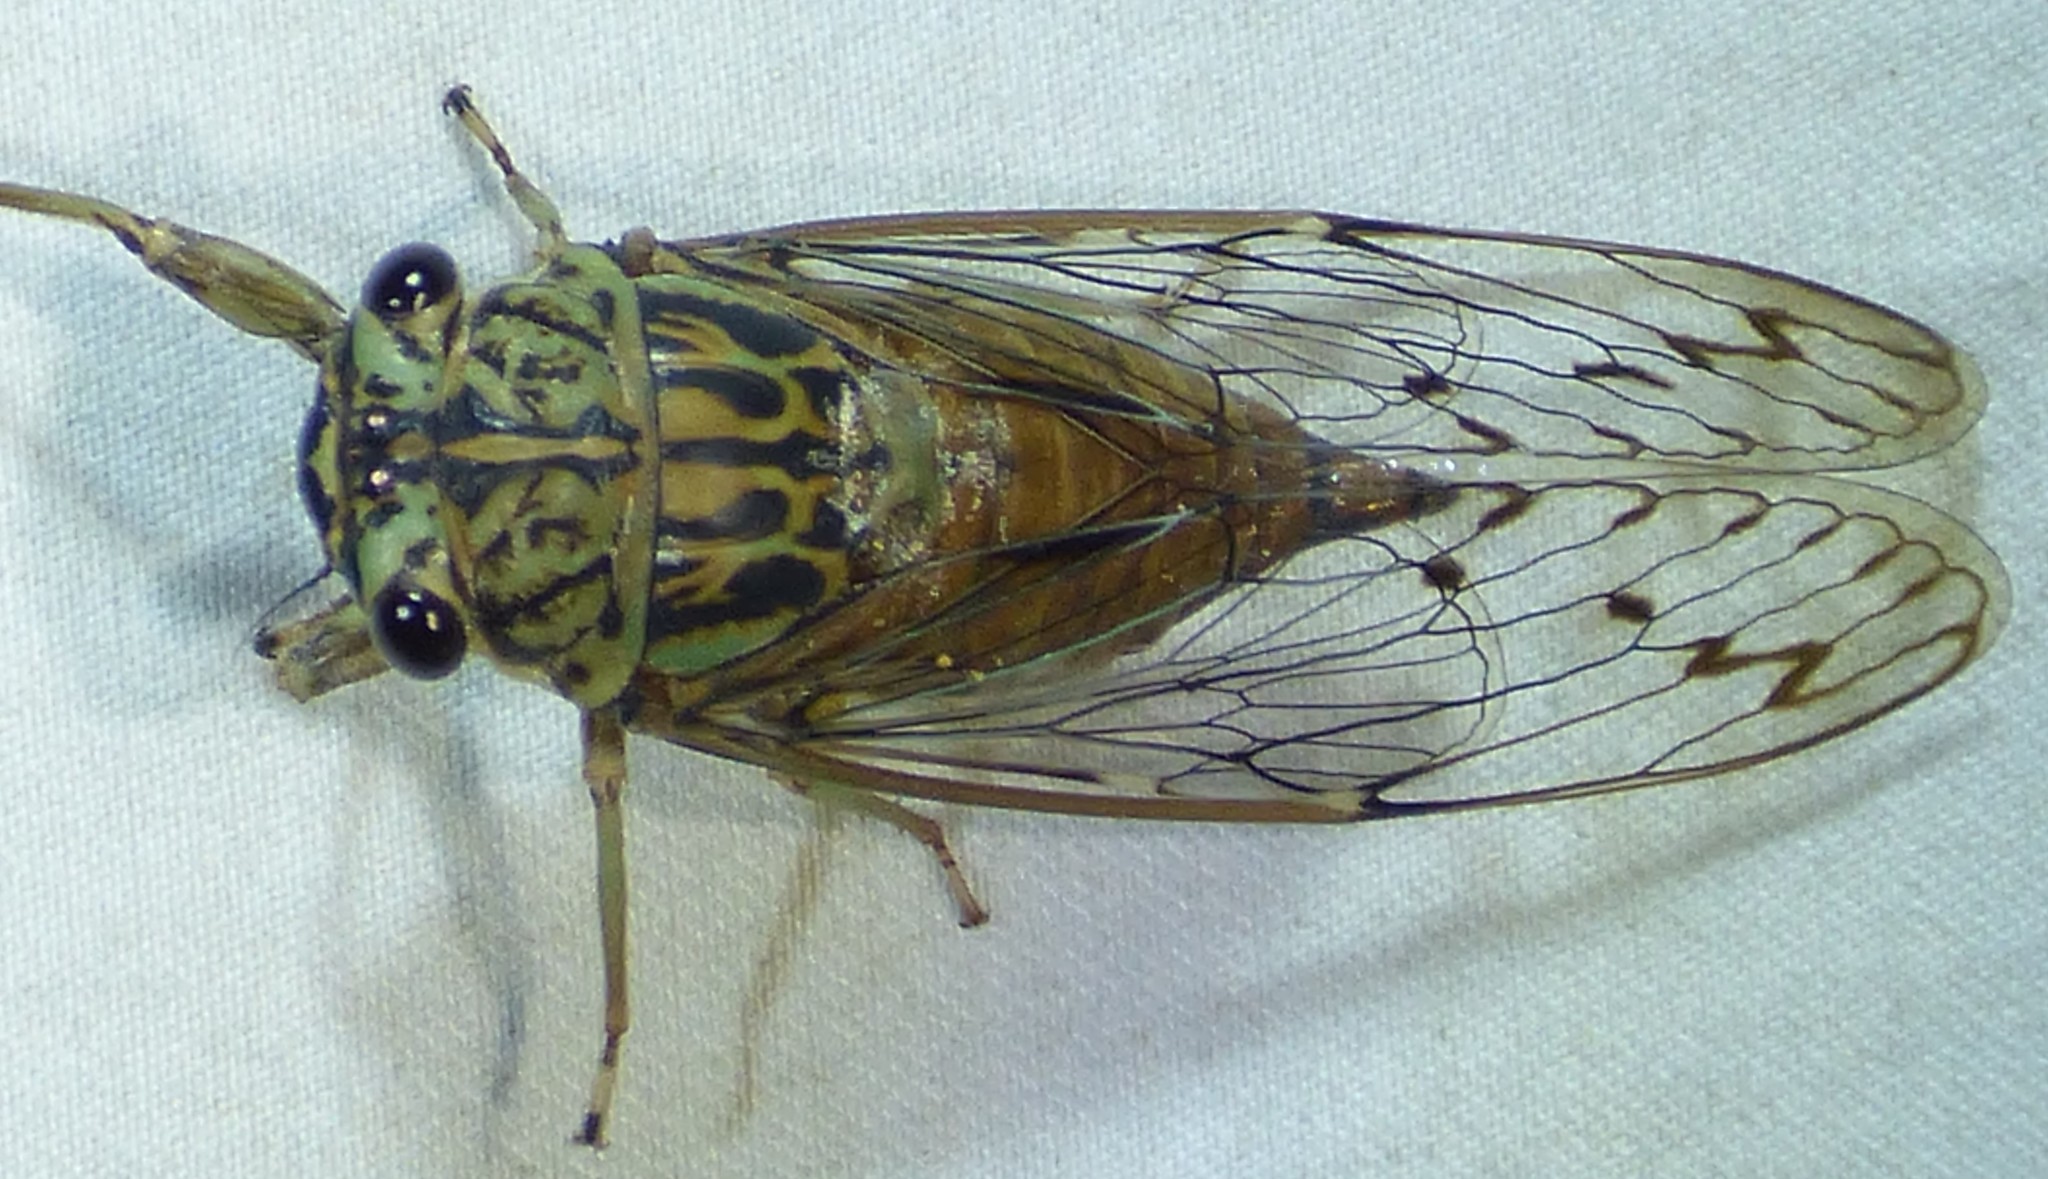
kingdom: Animalia
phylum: Arthropoda
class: Insecta
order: Hemiptera
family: Cicadidae
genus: Neocicada
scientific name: Neocicada hieroglyphica
